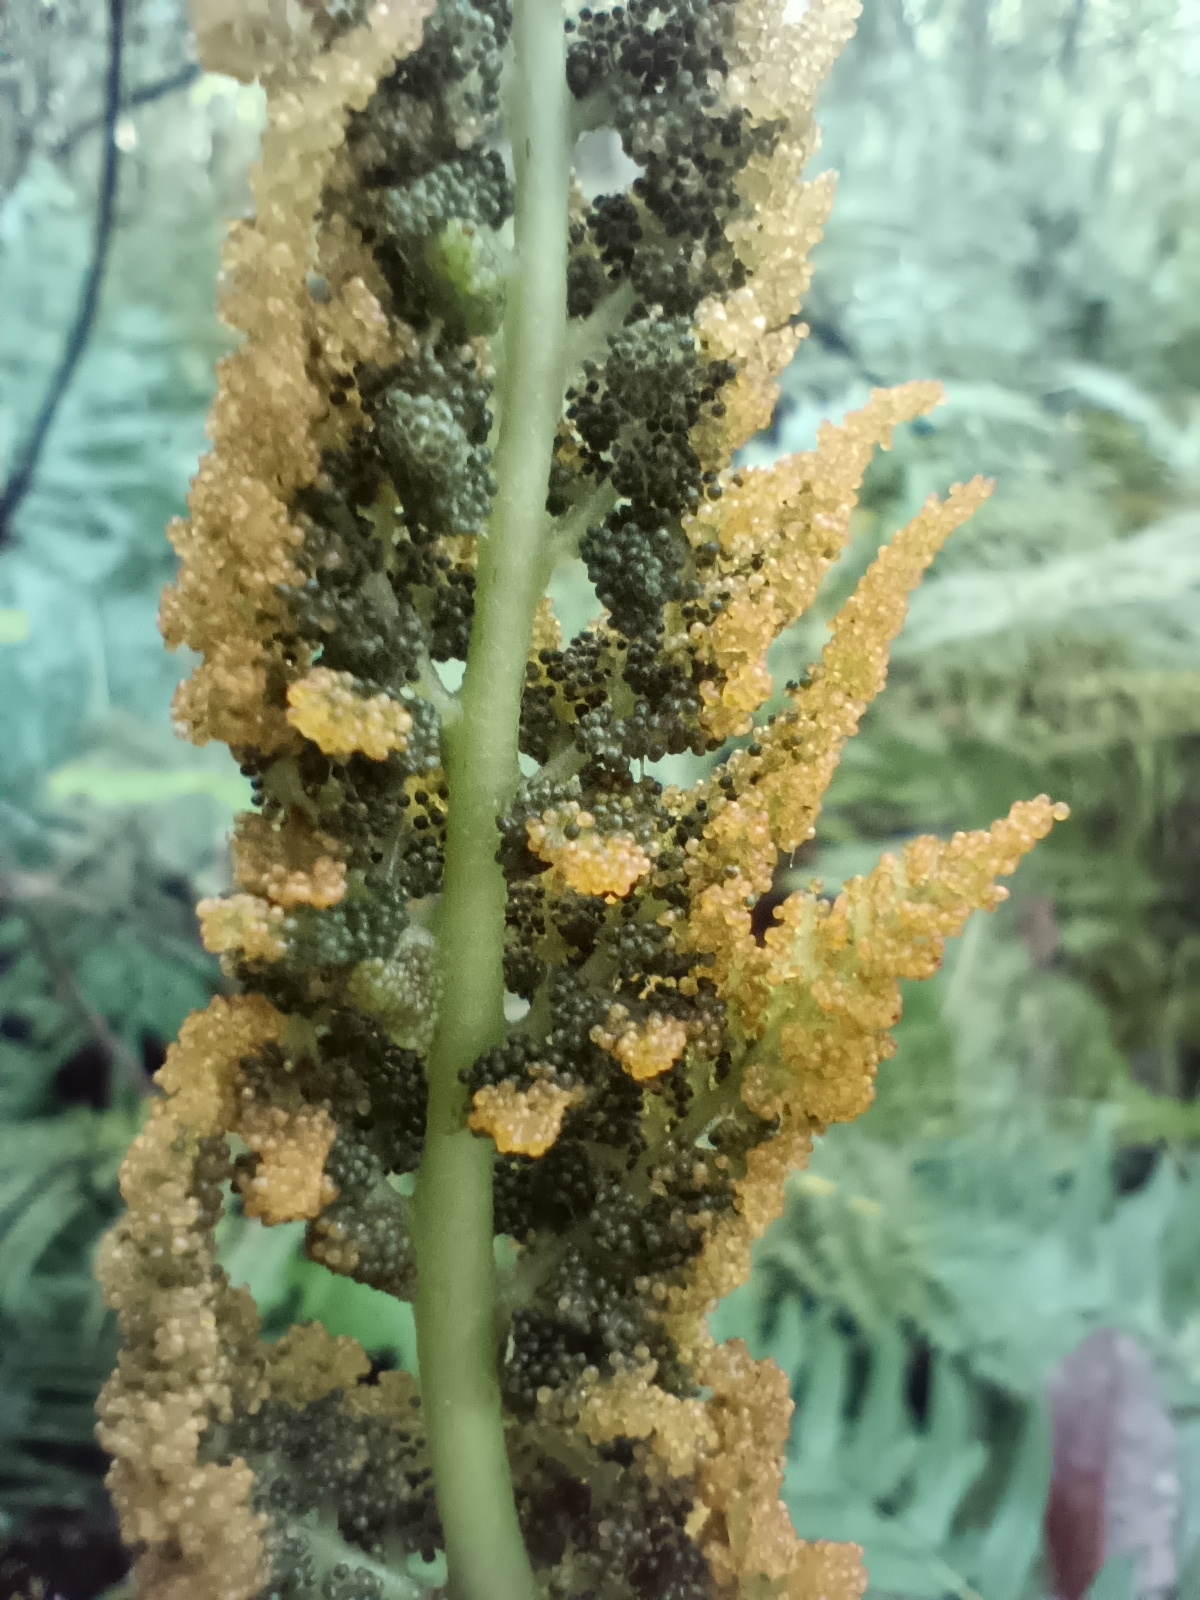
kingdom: Plantae
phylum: Tracheophyta
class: Polypodiopsida
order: Osmundales
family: Osmundaceae
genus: Osmundastrum
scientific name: Osmundastrum cinnamomeum
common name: Cinnamon fern
